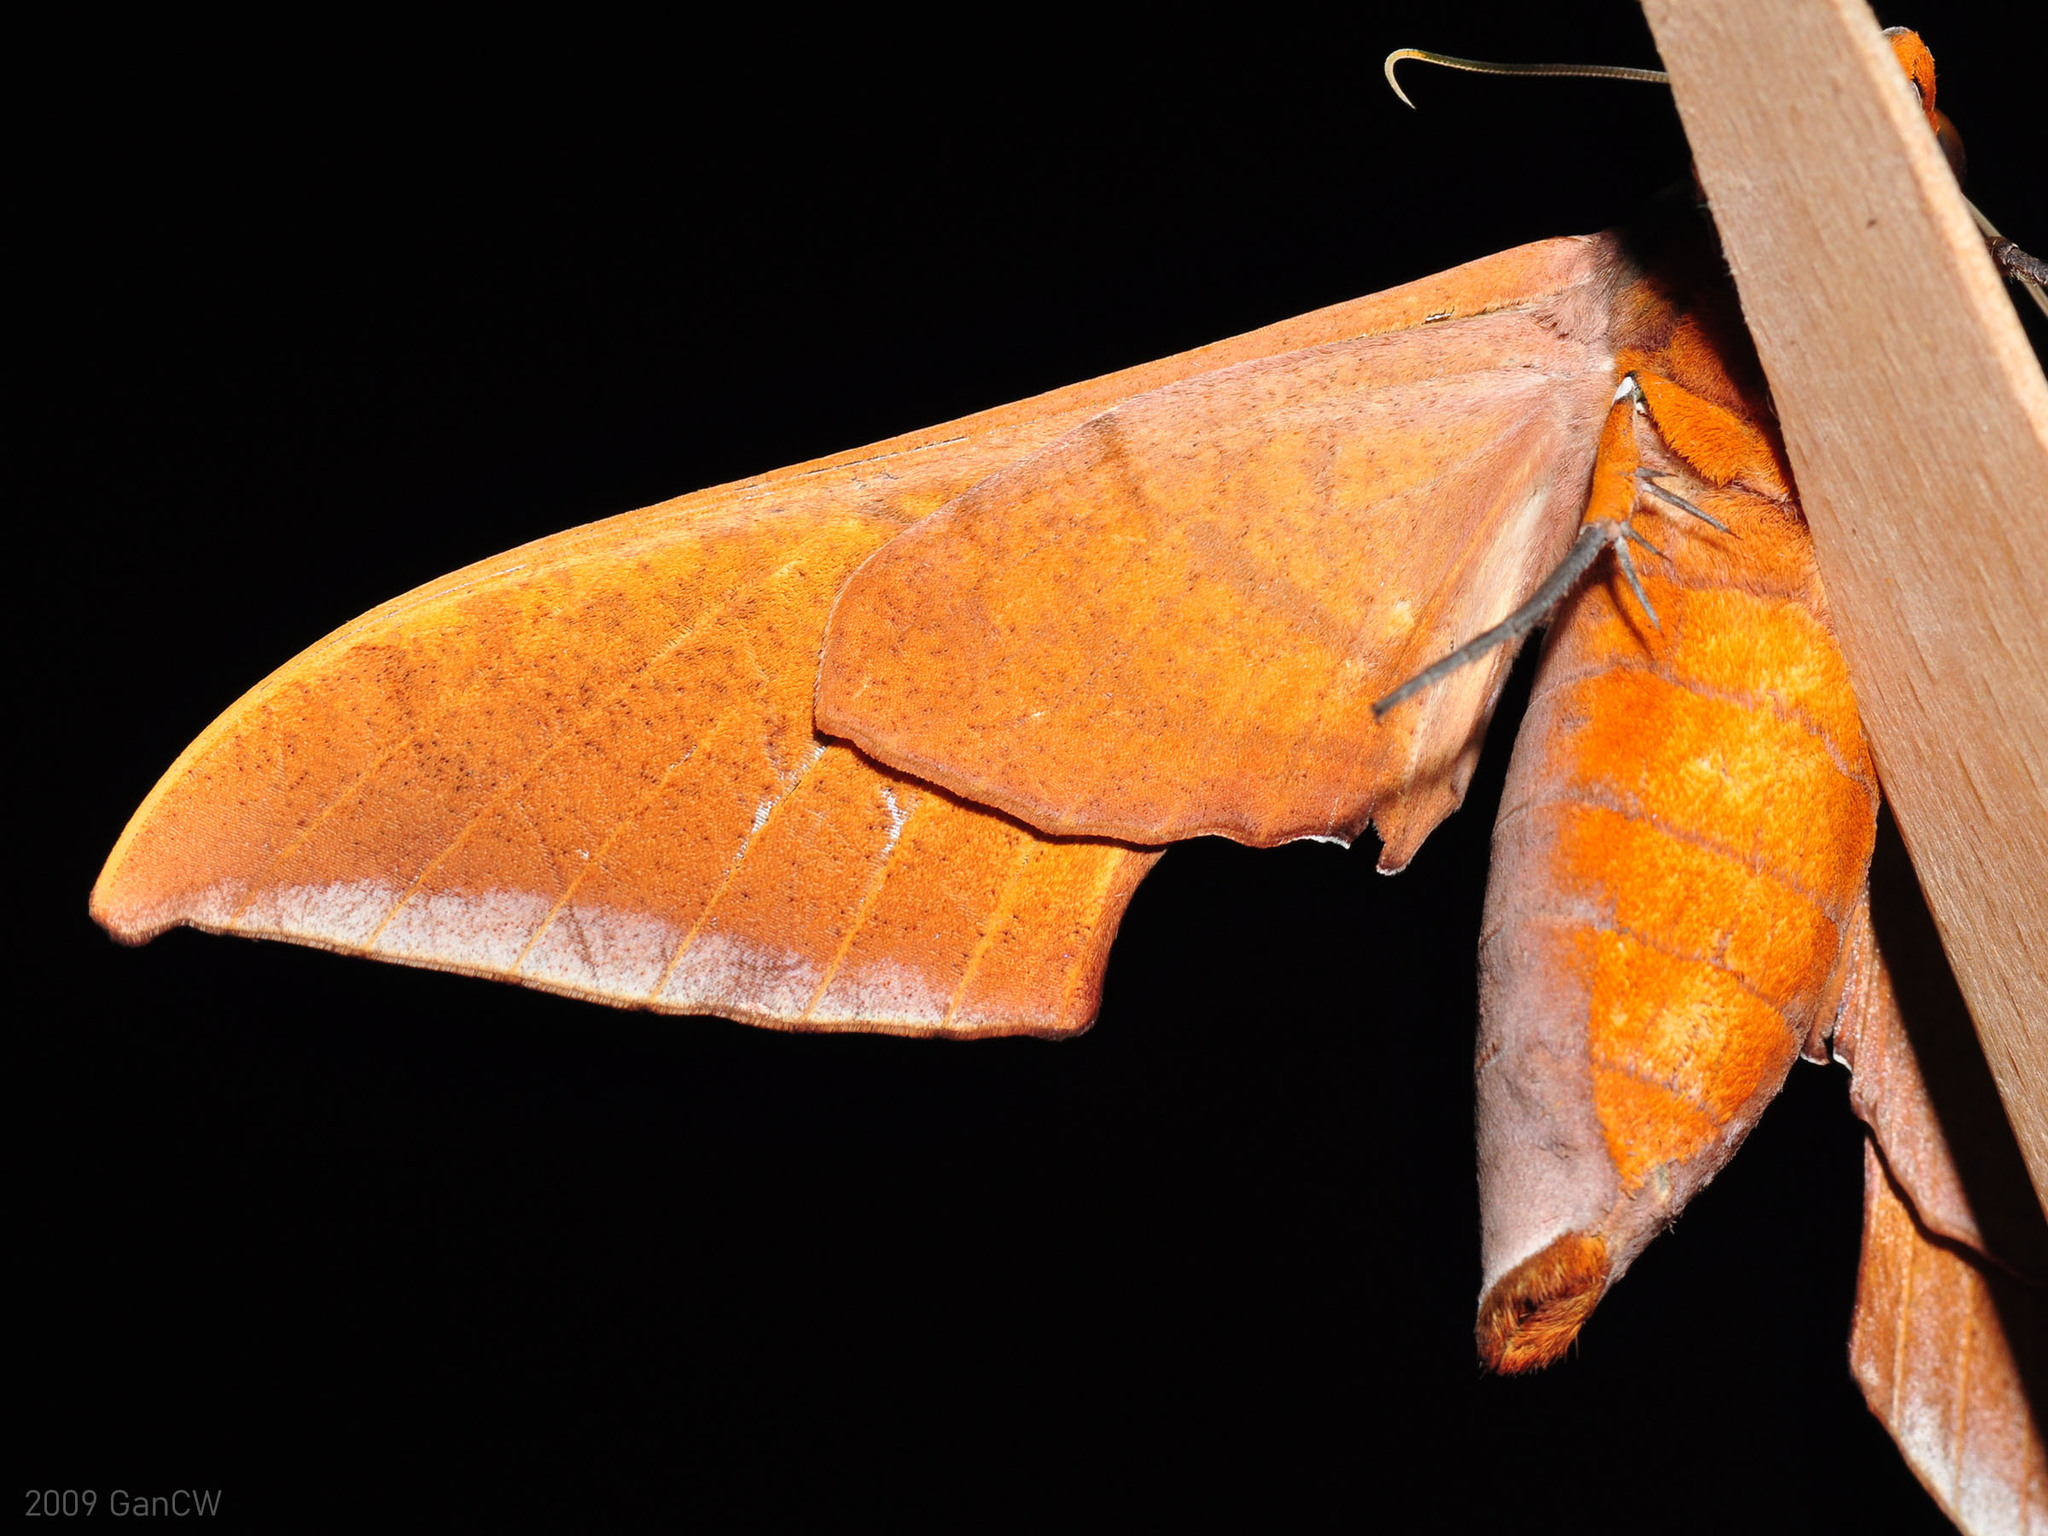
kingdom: Animalia
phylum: Arthropoda
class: Insecta
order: Lepidoptera
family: Sphingidae
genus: Ambulyx
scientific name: Ambulyx obliterata
